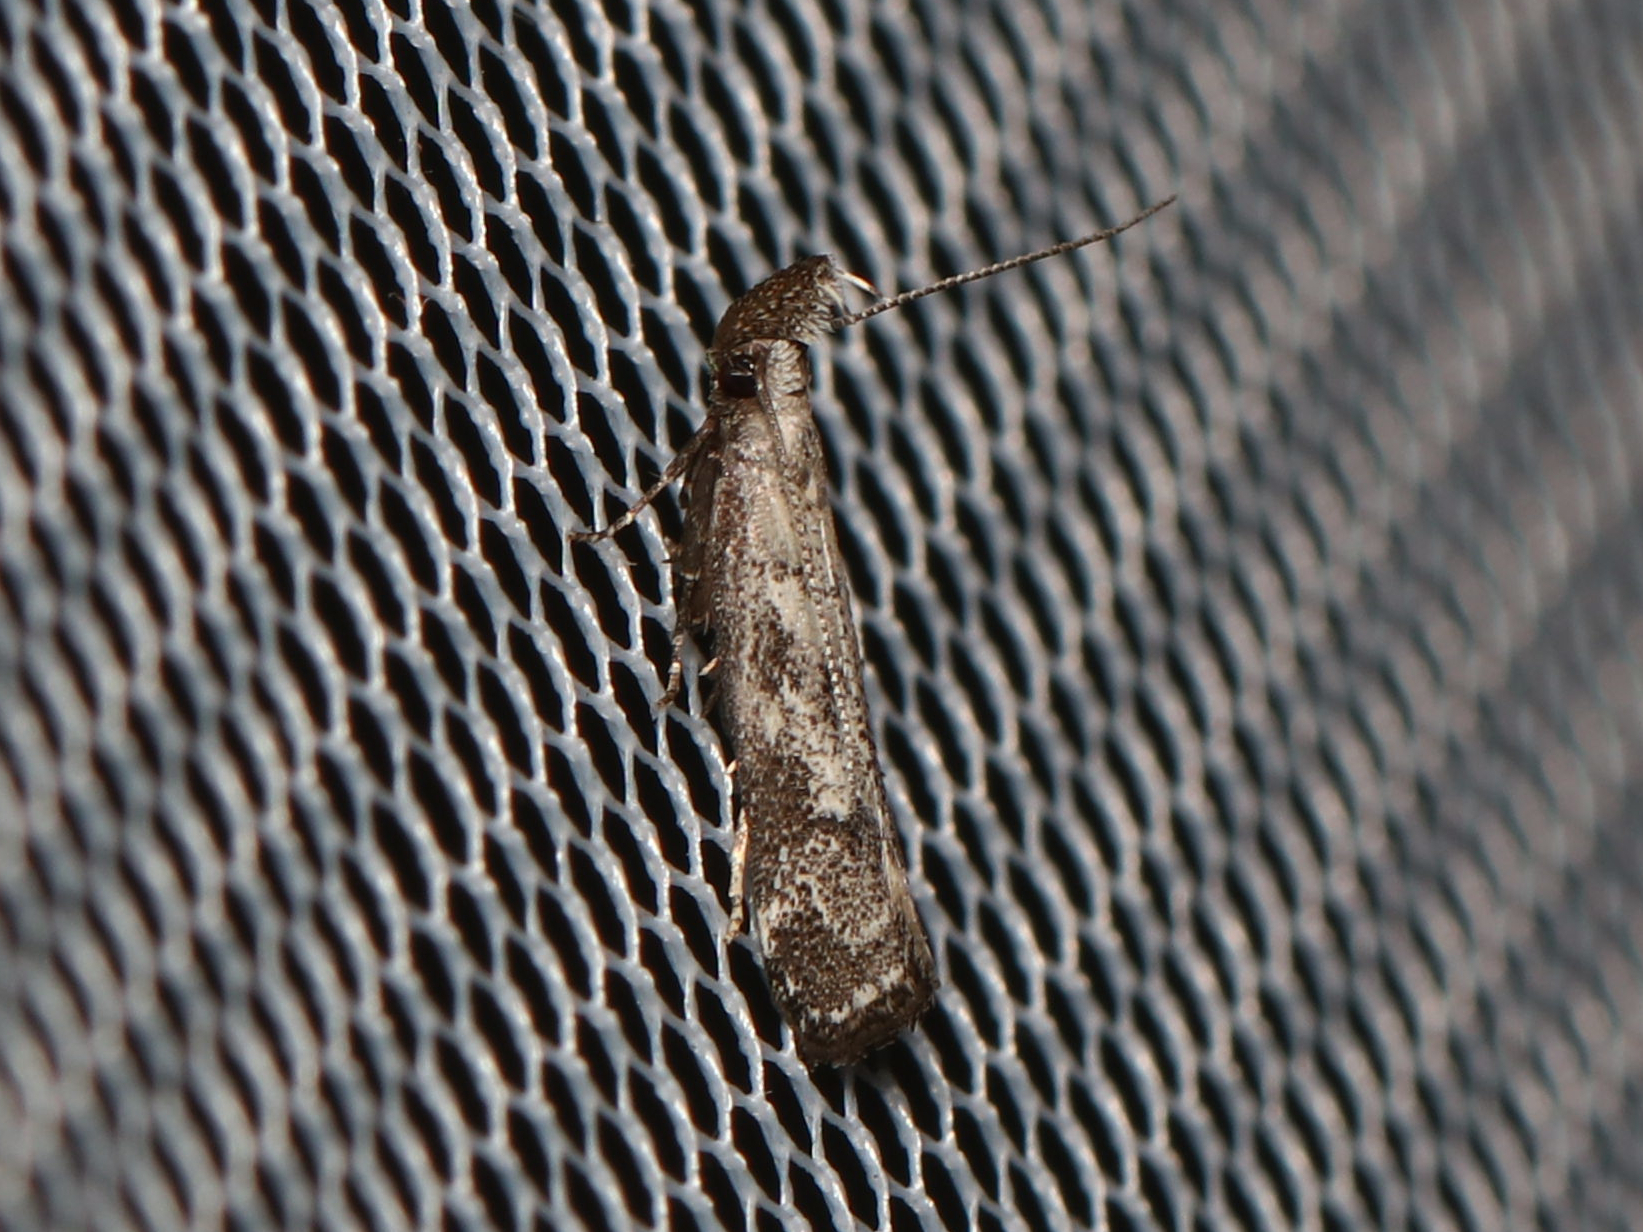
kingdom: Animalia
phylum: Arthropoda
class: Insecta
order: Lepidoptera
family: Gelechiidae
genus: Dichomeris
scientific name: Dichomeris inversella
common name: Inverse dichomeris moth
